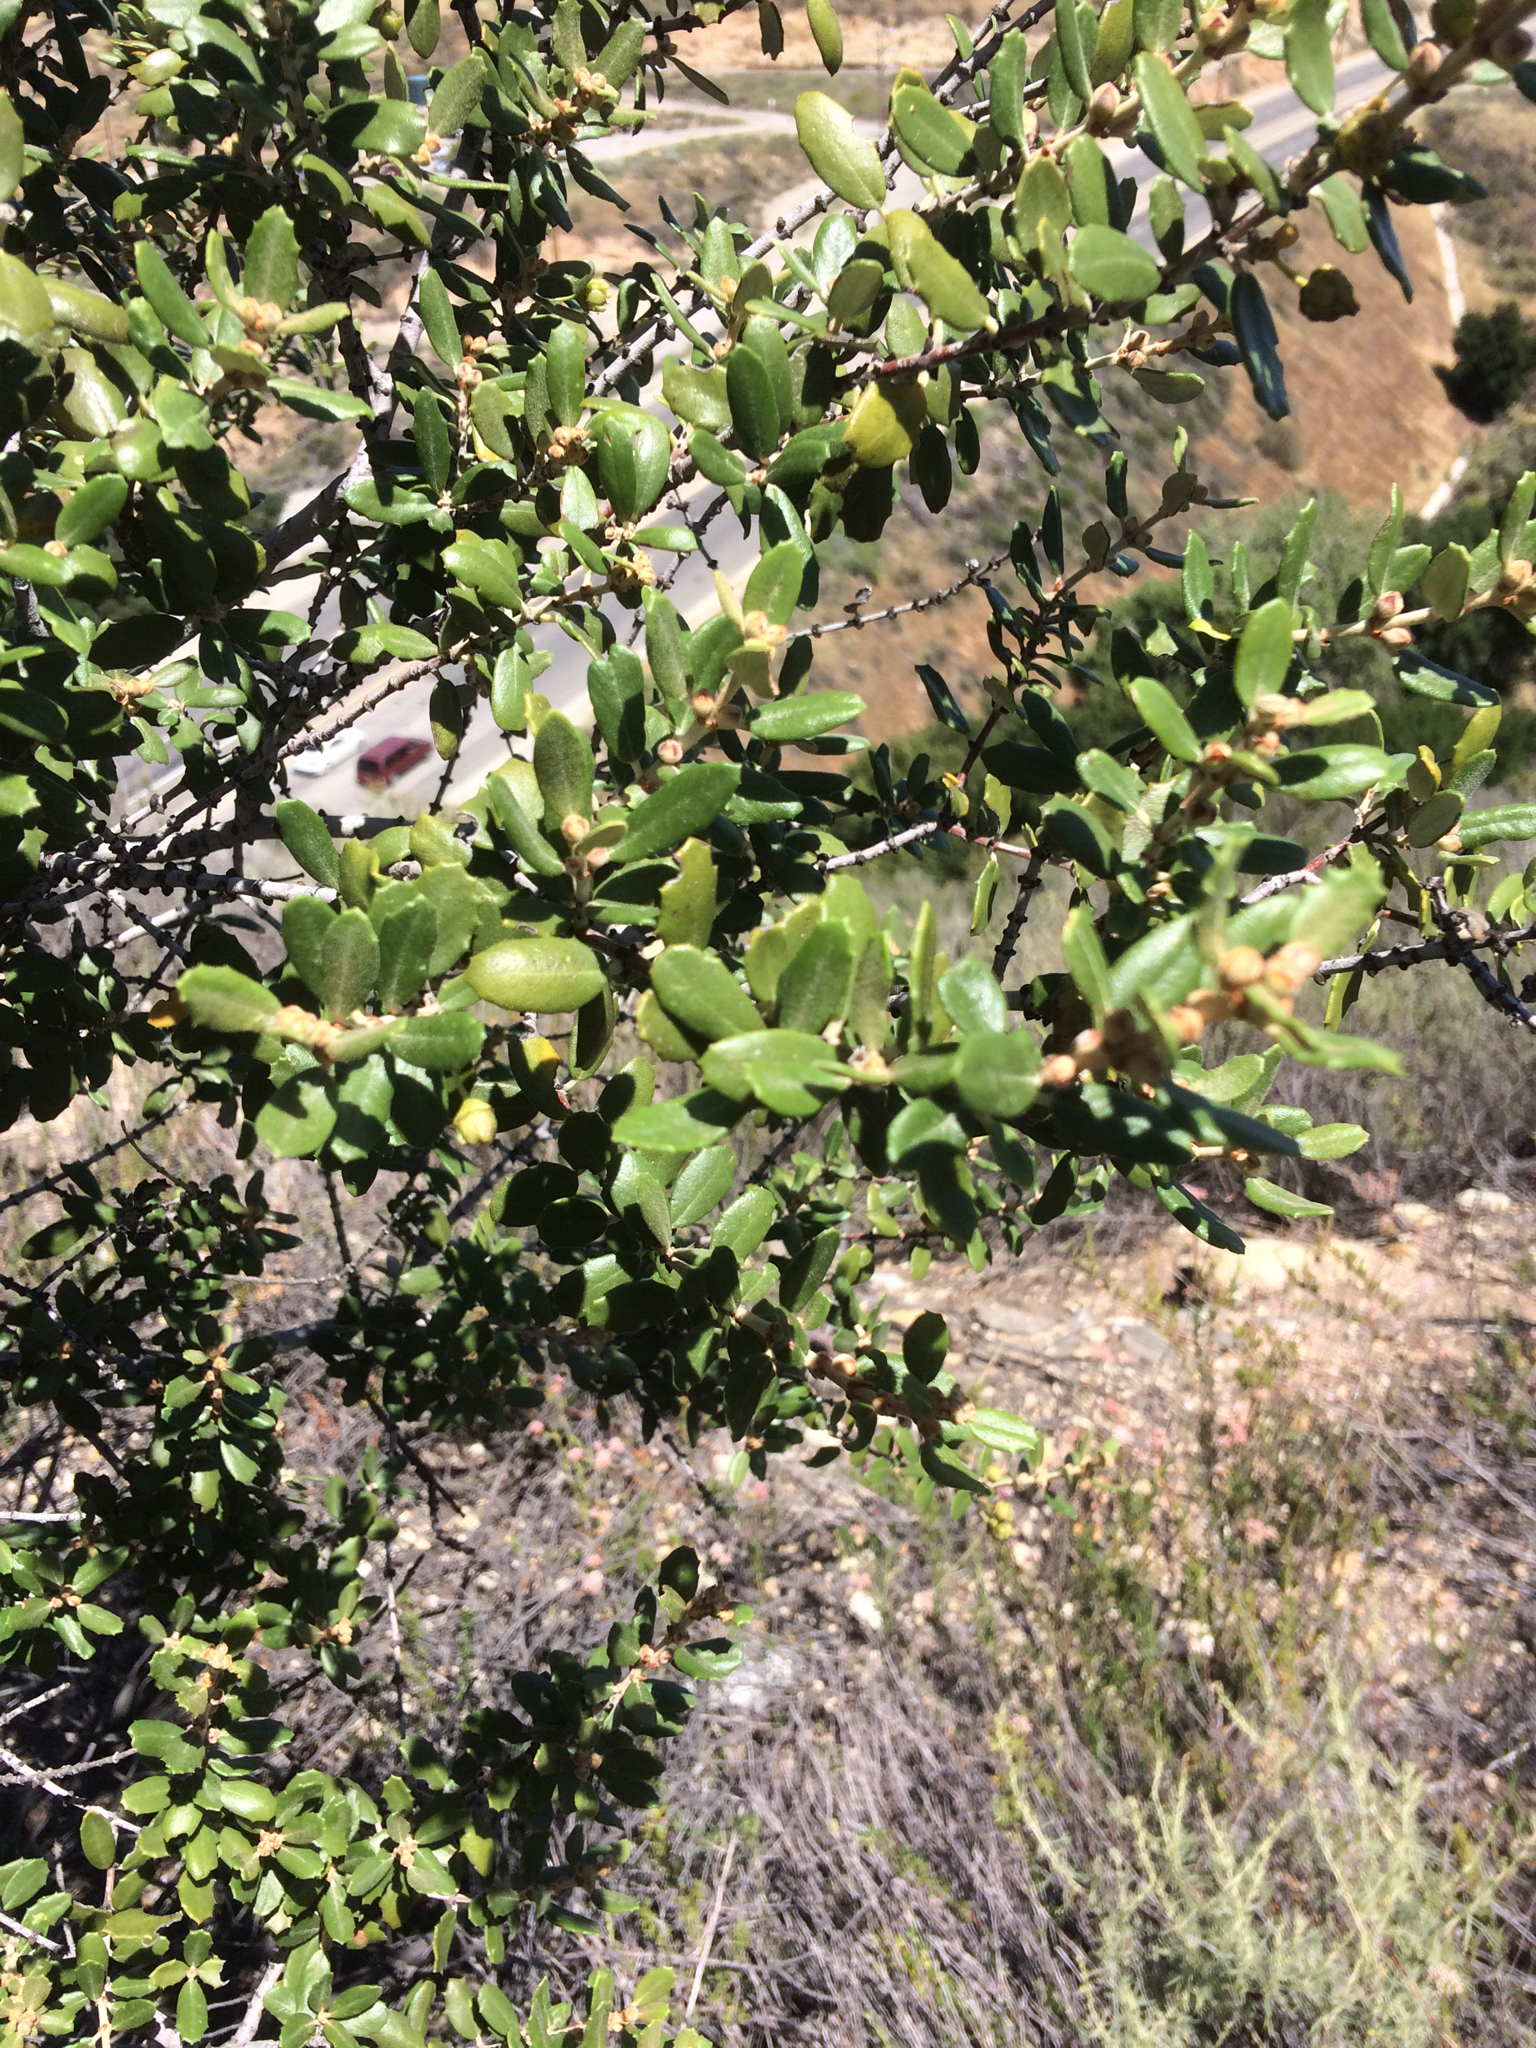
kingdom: Plantae
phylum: Tracheophyta
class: Magnoliopsida
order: Rosales
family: Rhamnaceae
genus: Ceanothus
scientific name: Ceanothus crassifolius
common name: Hoaryleaf ceanothus
